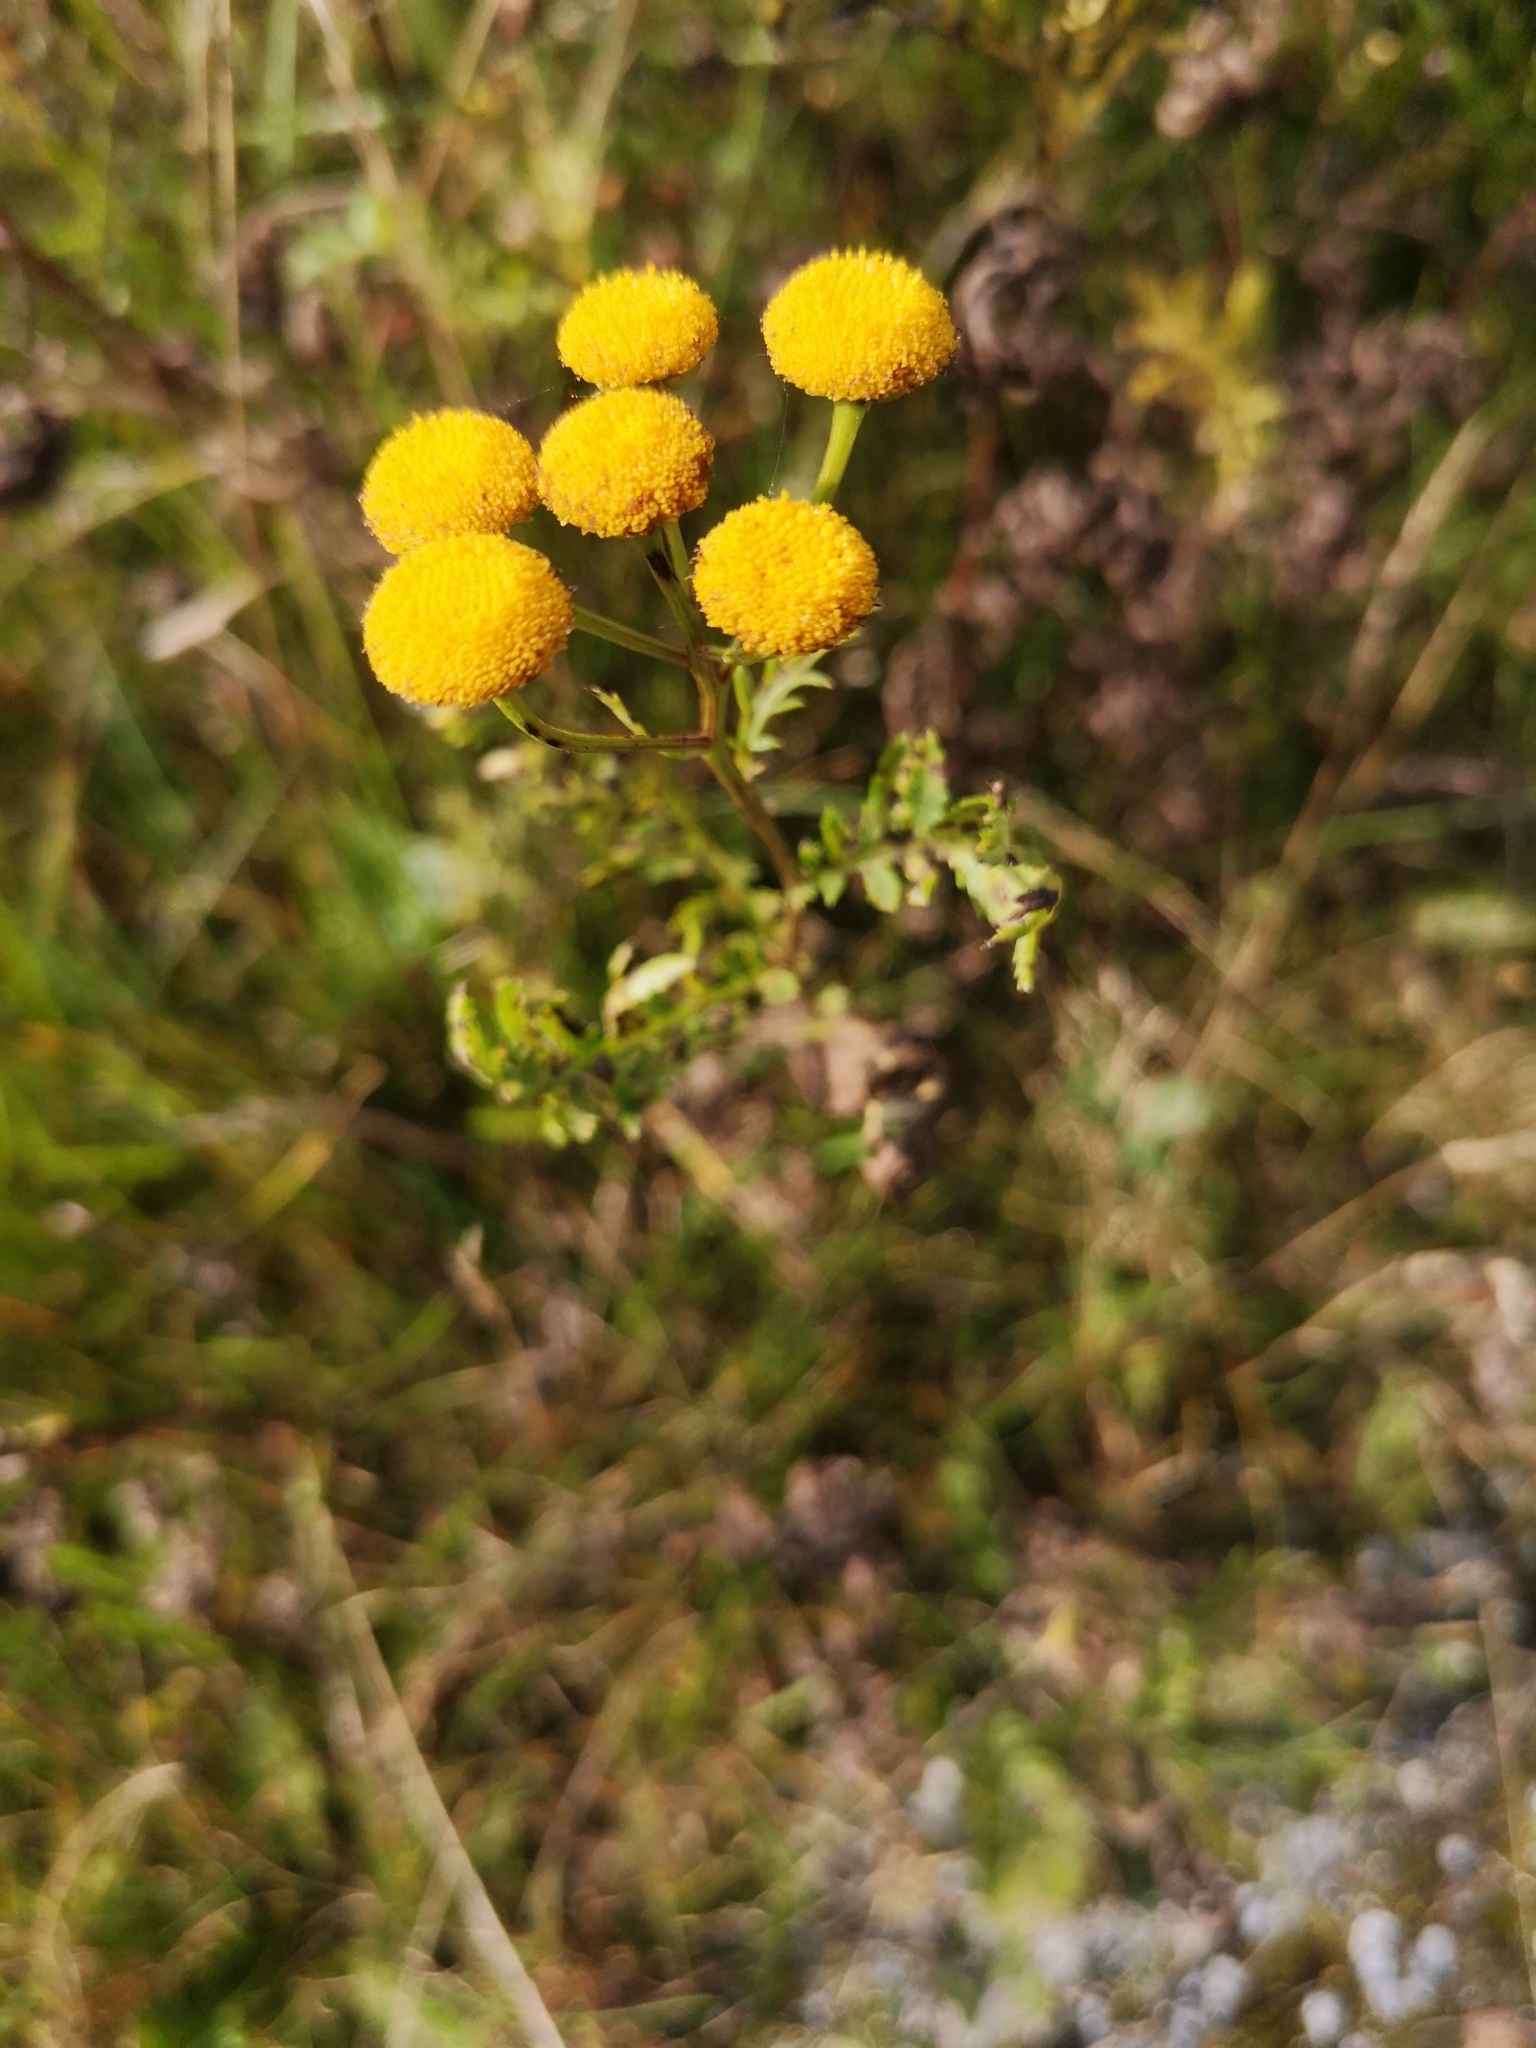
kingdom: Plantae
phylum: Tracheophyta
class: Magnoliopsida
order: Asterales
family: Asteraceae
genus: Tanacetum
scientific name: Tanacetum vulgare
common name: Common tansy
